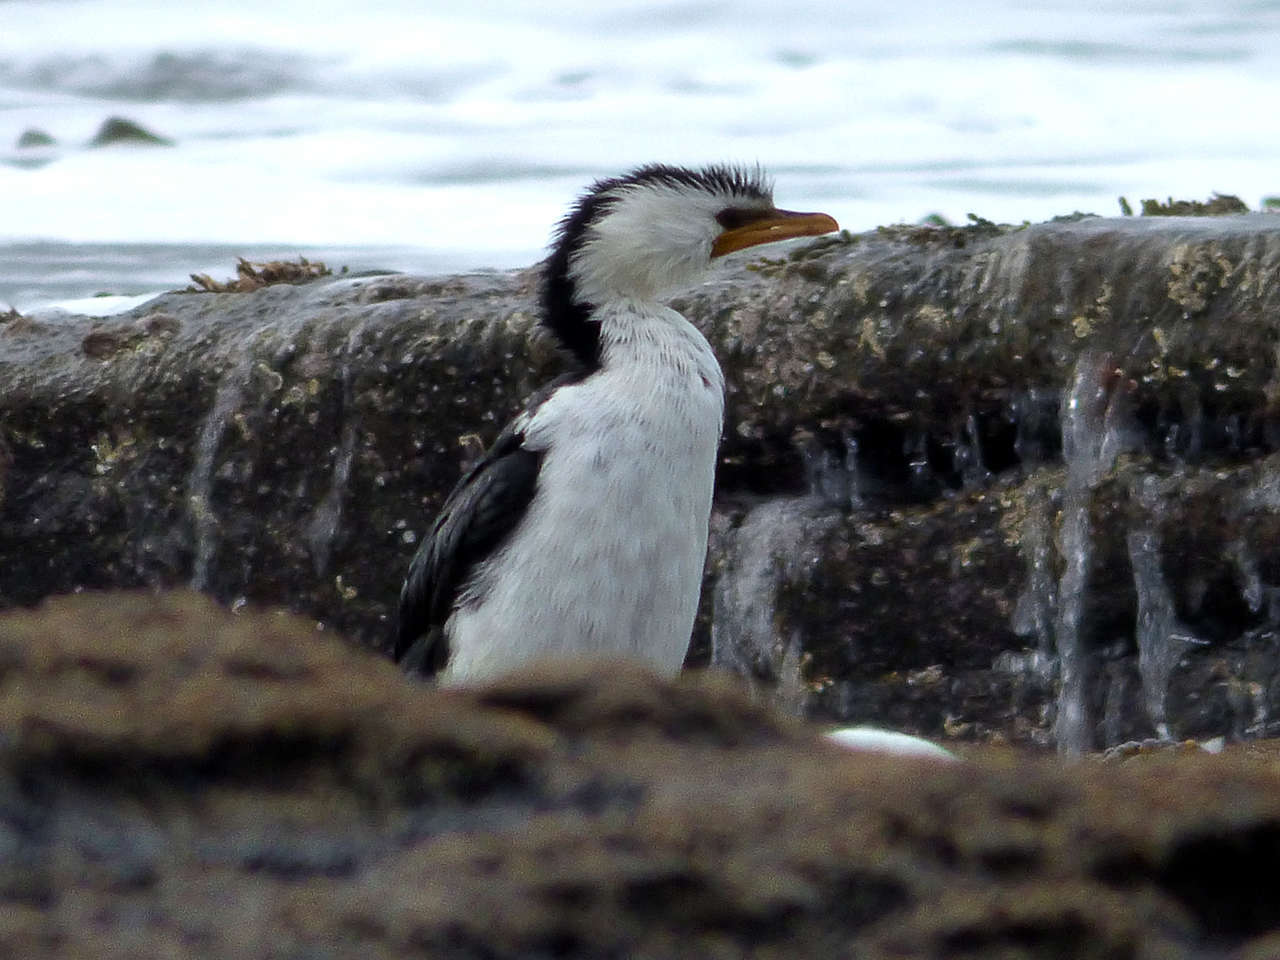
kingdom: Animalia
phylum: Chordata
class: Aves
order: Suliformes
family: Phalacrocoracidae
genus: Microcarbo
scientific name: Microcarbo melanoleucos
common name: Little pied cormorant
